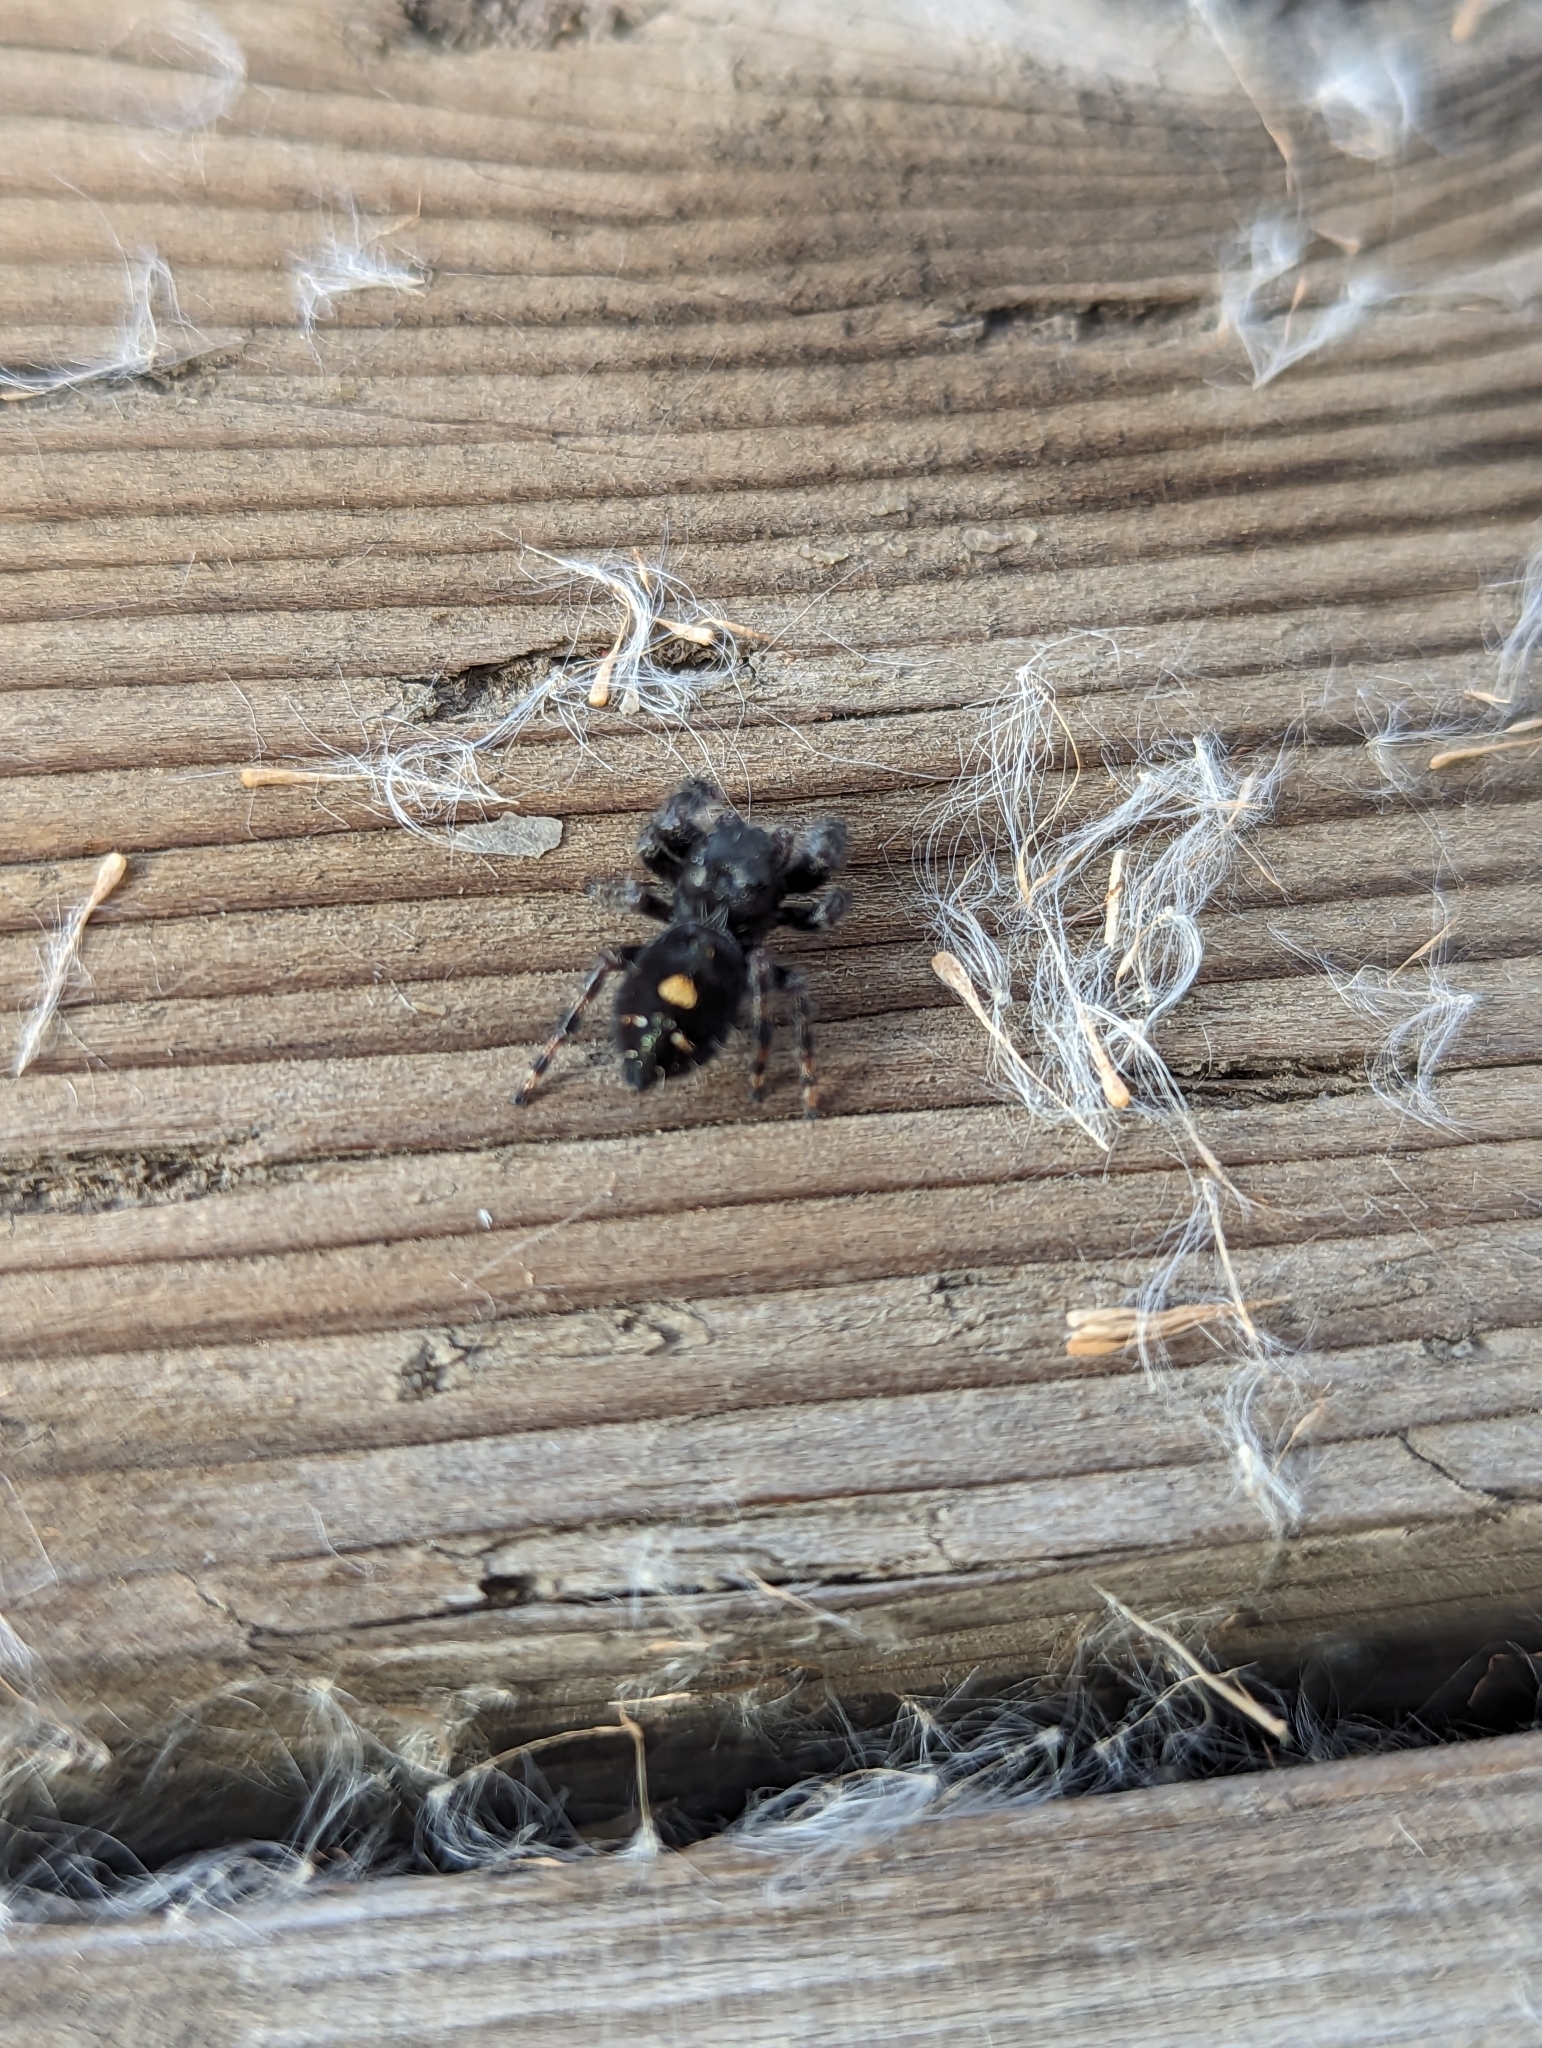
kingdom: Animalia
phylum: Arthropoda
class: Arachnida
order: Araneae
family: Salticidae
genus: Phidippus
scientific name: Phidippus audax
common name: Bold jumper
